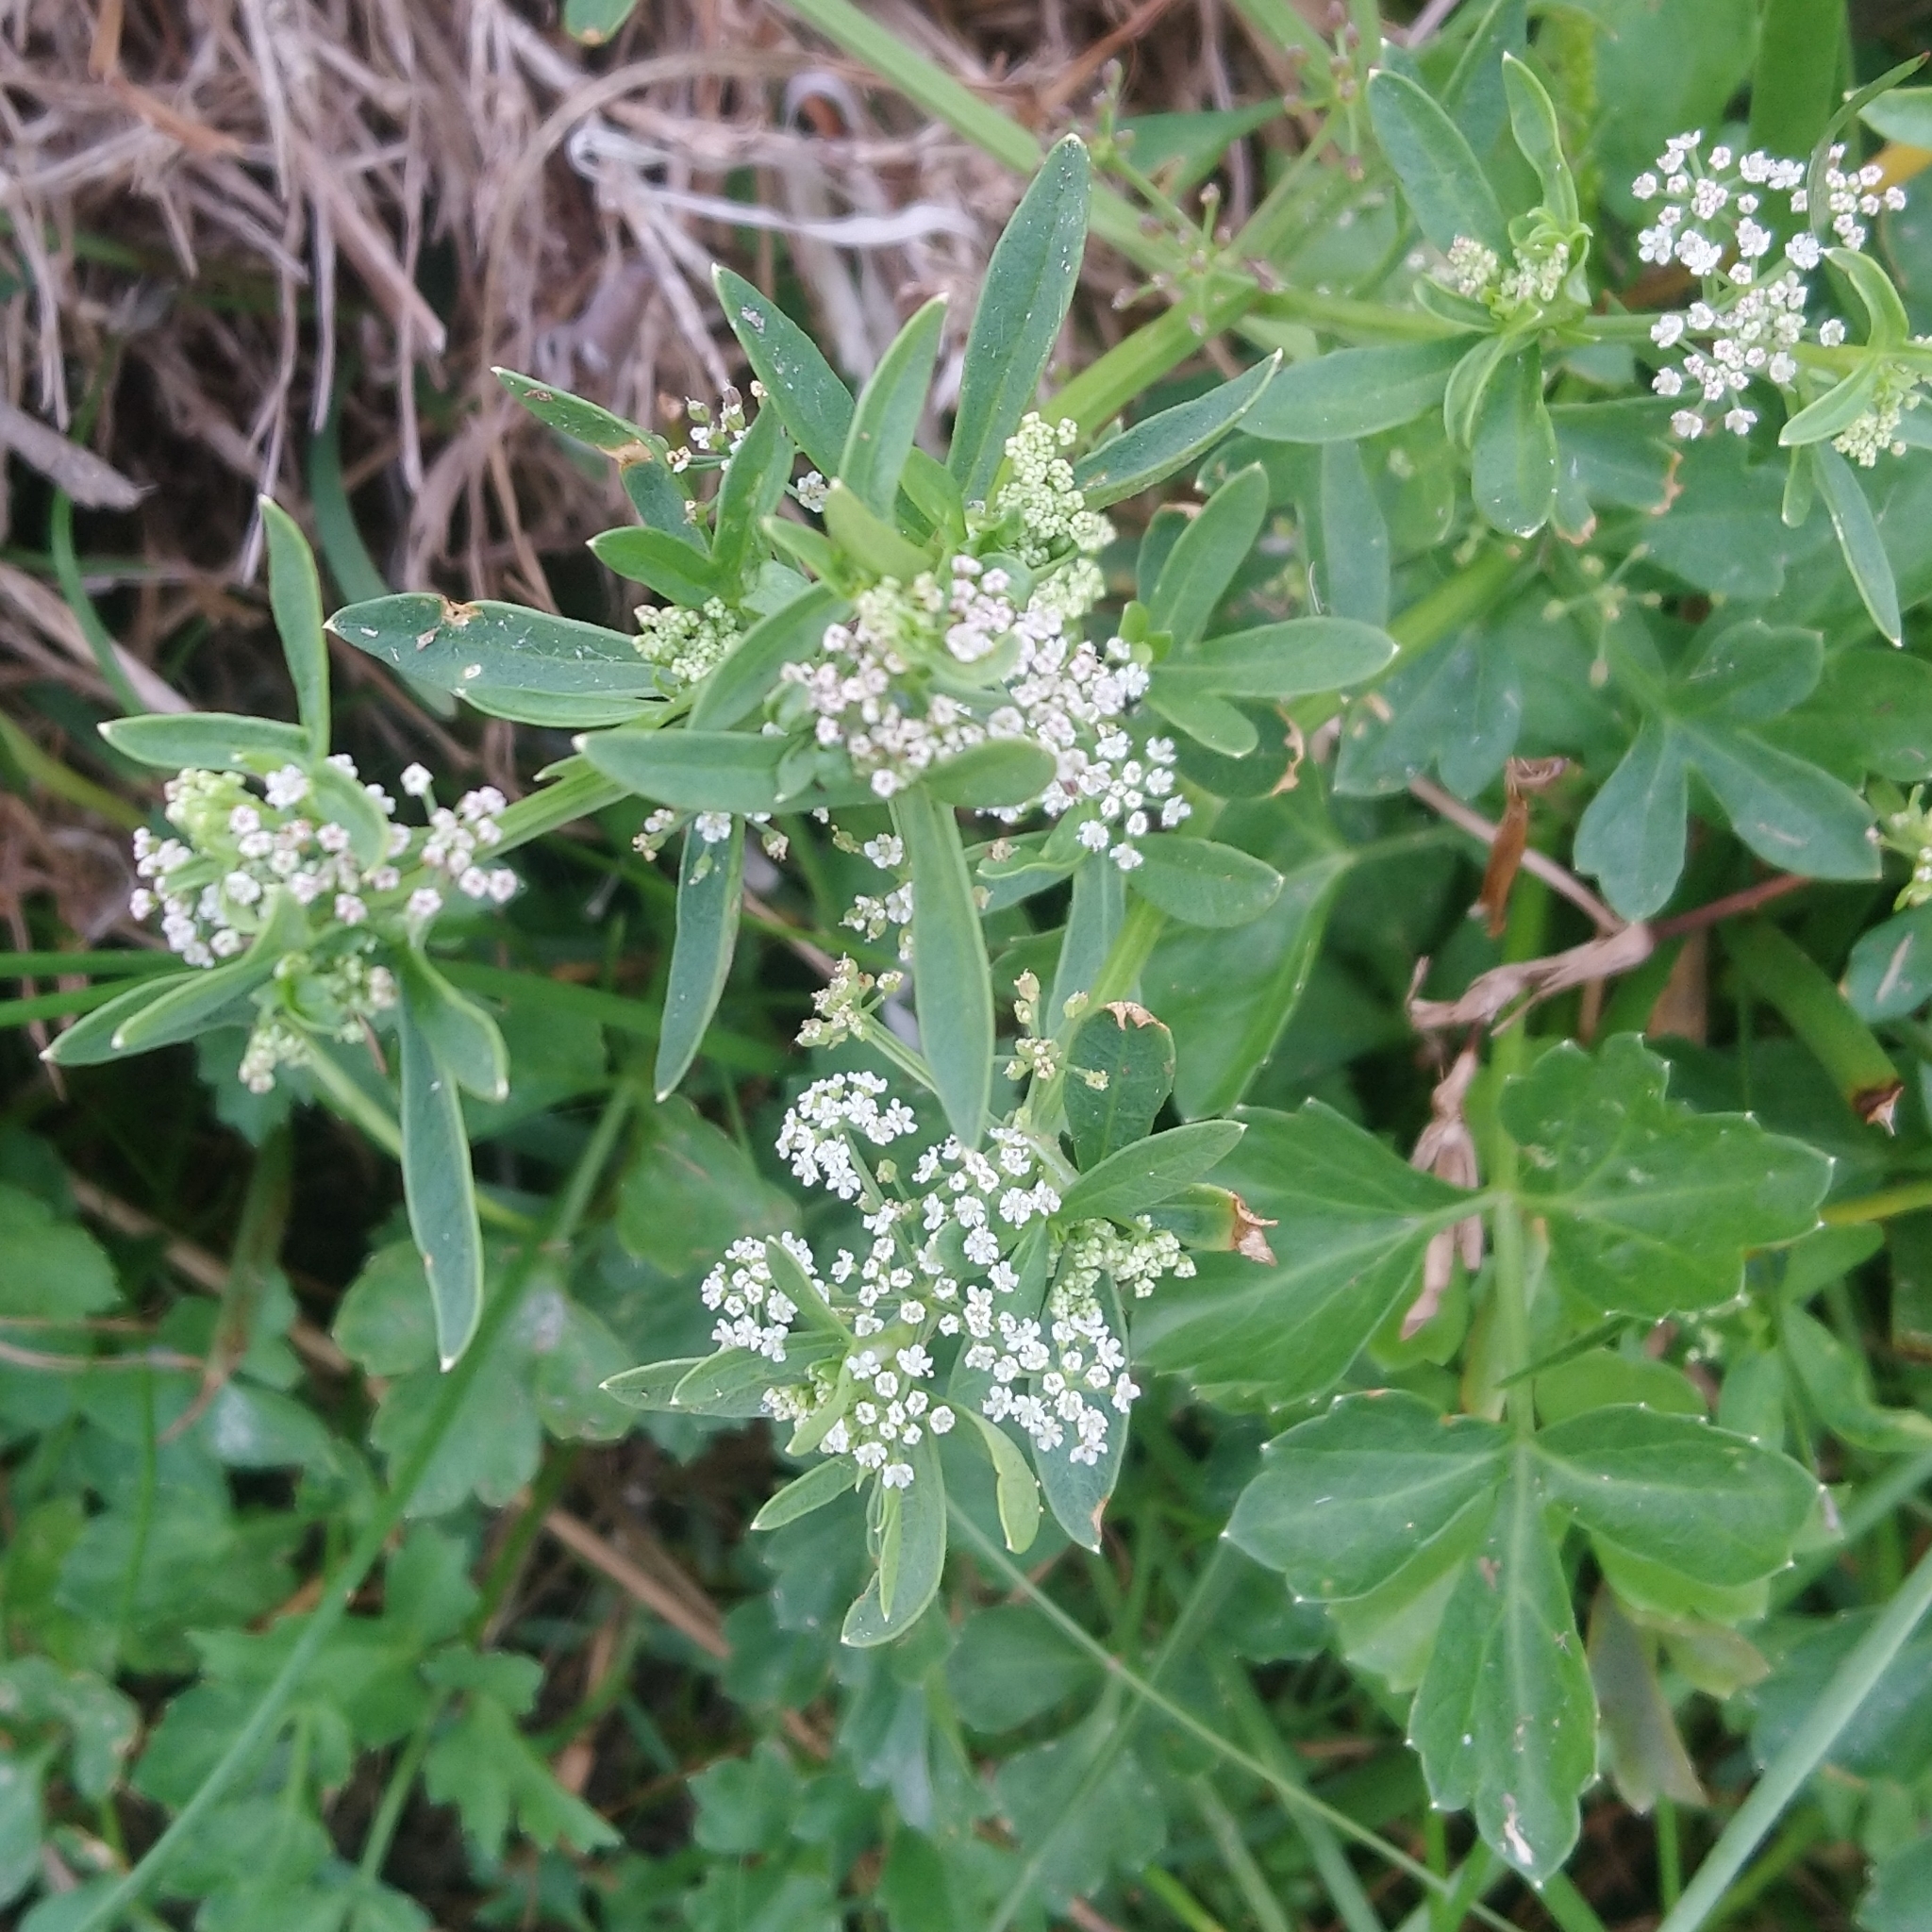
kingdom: Plantae
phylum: Tracheophyta
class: Magnoliopsida
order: Apiales
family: Apiaceae
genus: Apium
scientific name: Apium decumbens
